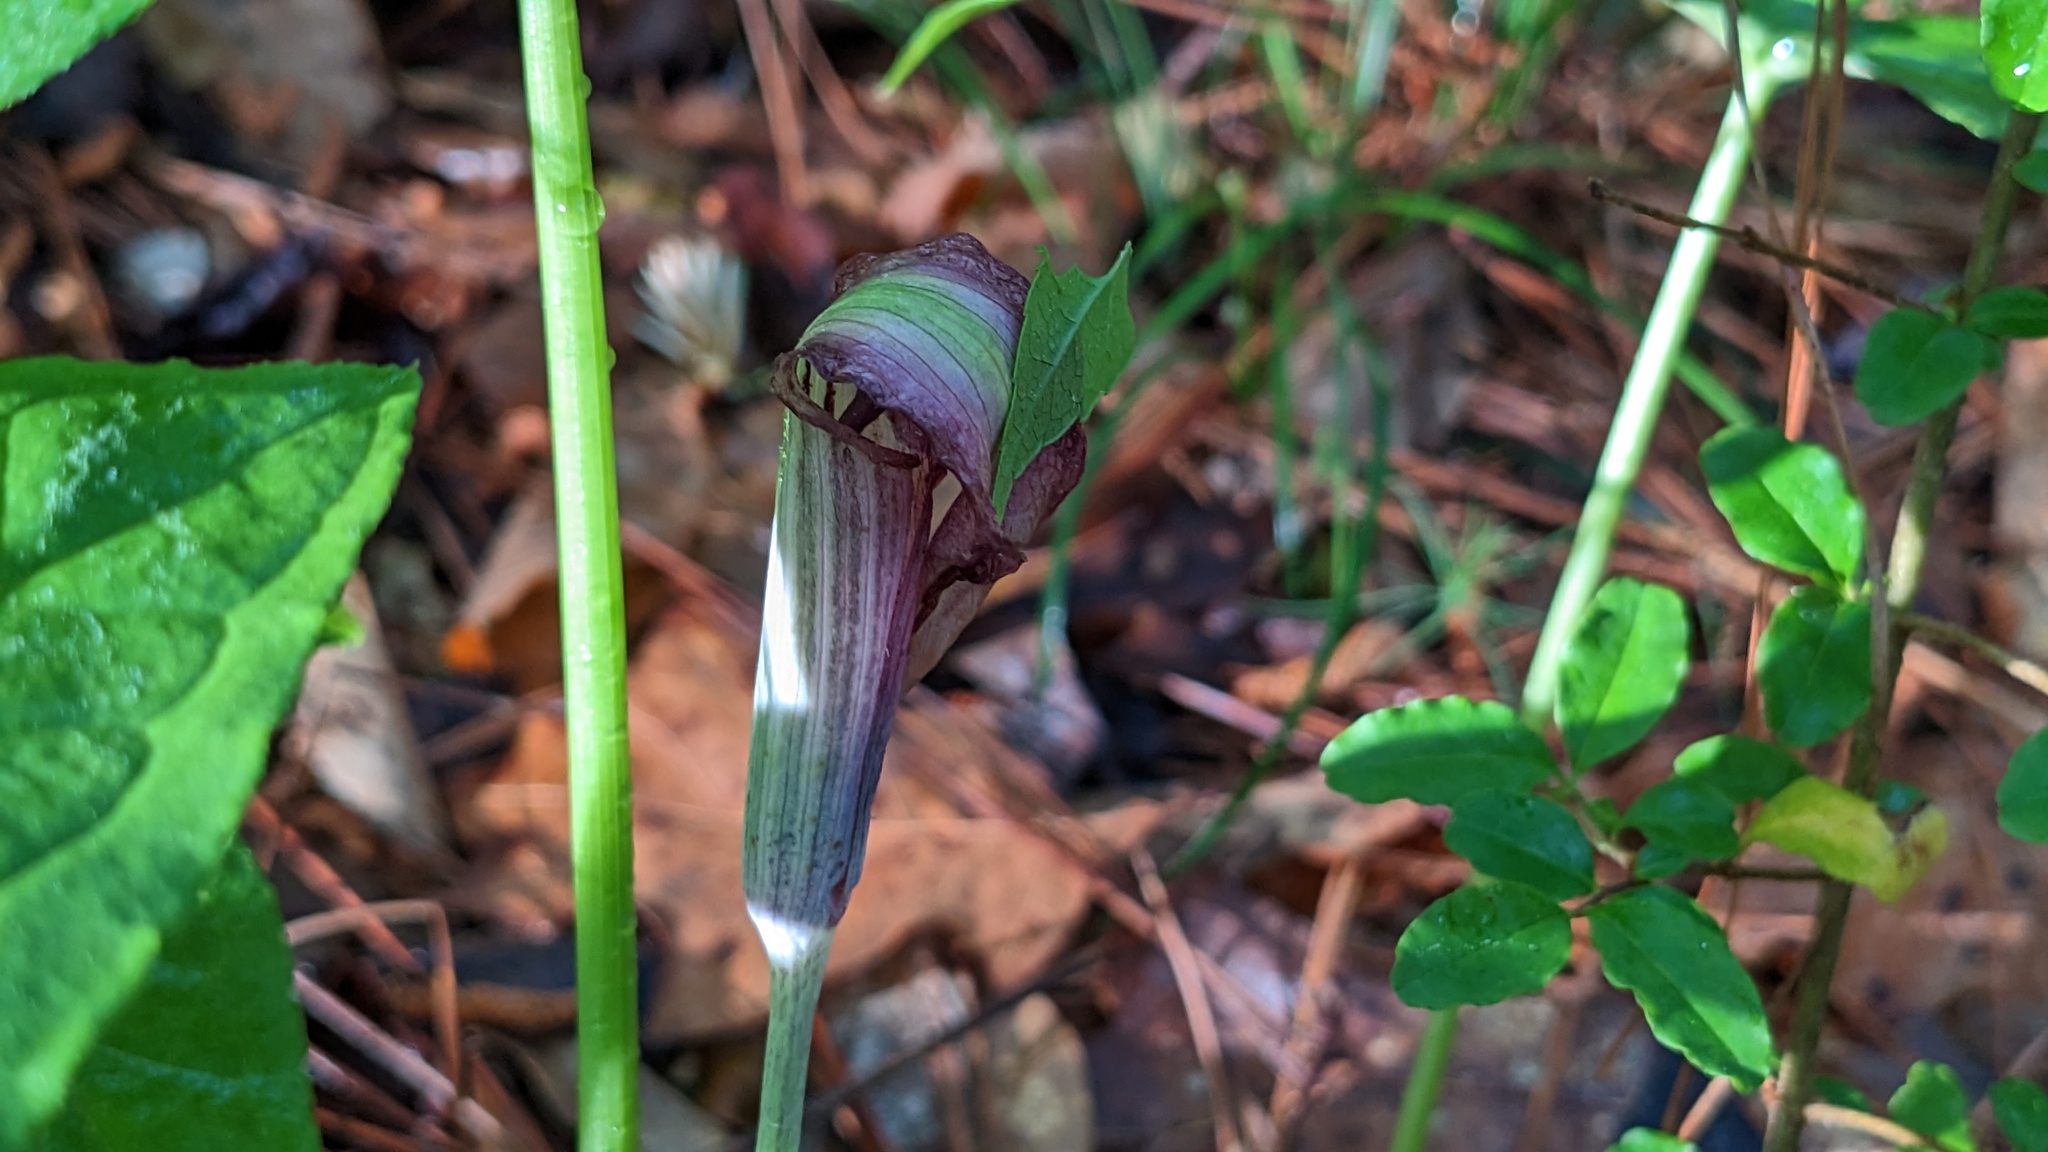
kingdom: Plantae
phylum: Tracheophyta
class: Liliopsida
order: Alismatales
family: Araceae
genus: Arisaema
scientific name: Arisaema triphyllum
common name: Jack-in-the-pulpit
